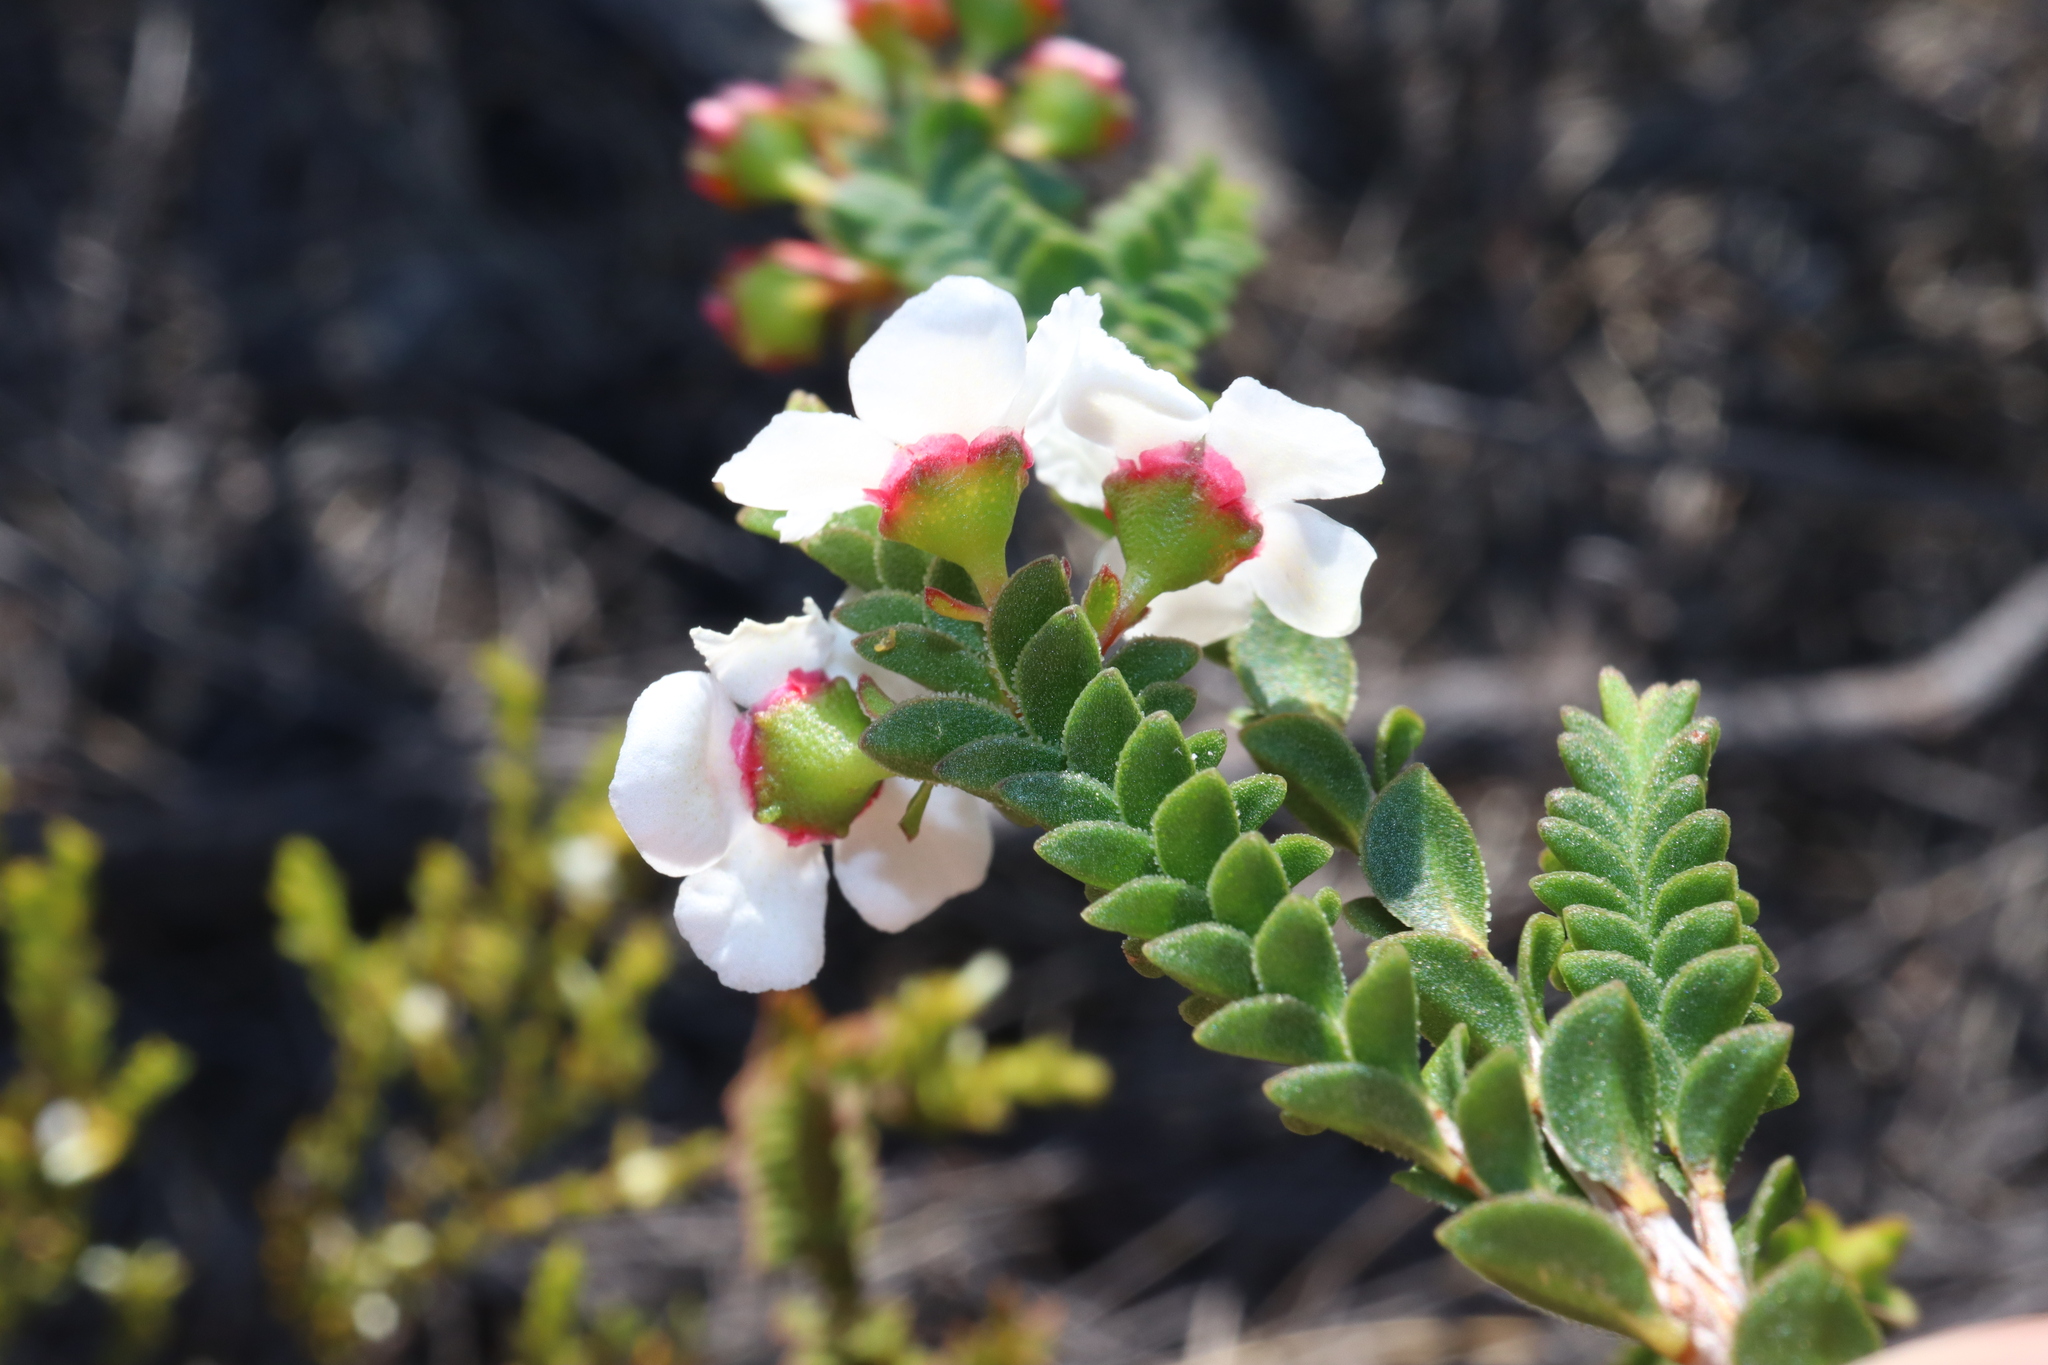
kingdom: Plantae
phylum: Tracheophyta
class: Magnoliopsida
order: Myrtales
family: Myrtaceae
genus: Anticoryne
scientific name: Anticoryne ovalifolia
